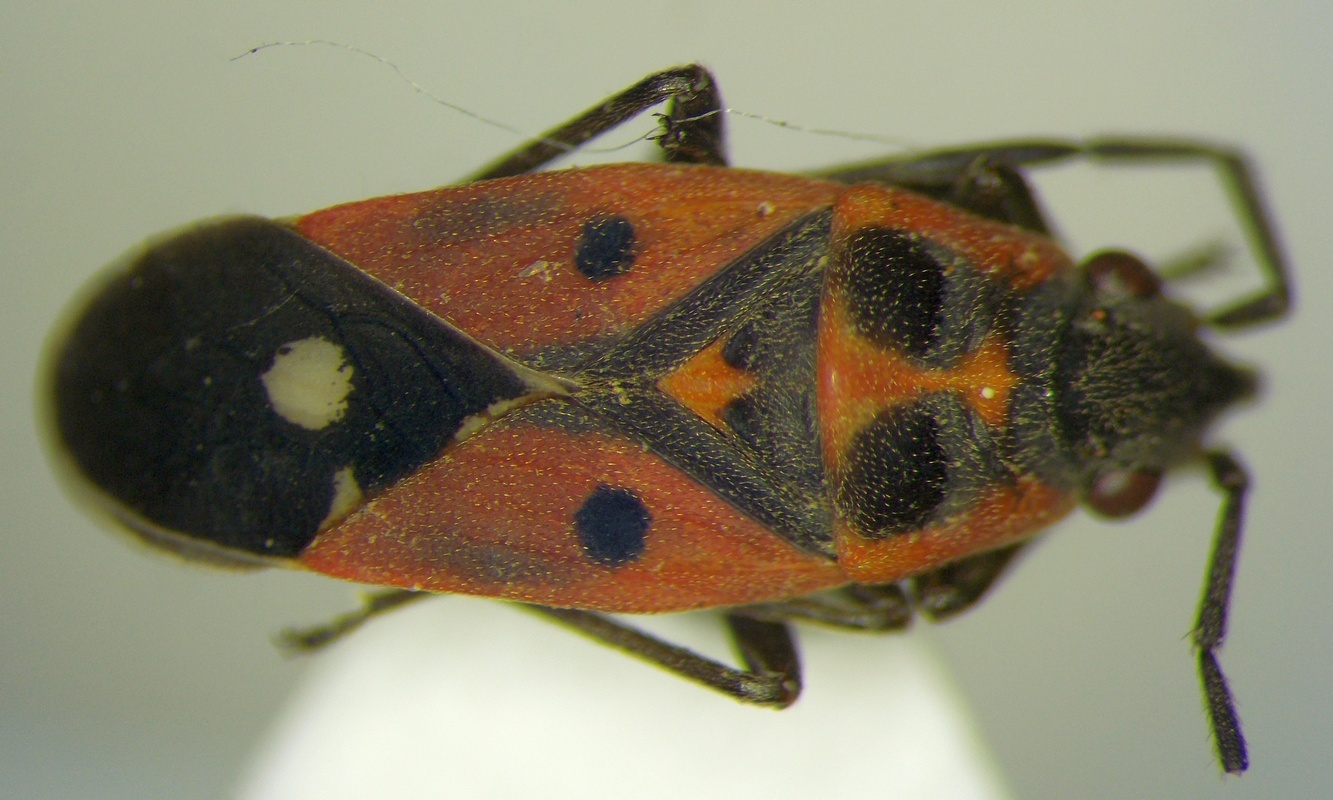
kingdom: Animalia
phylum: Arthropoda
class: Insecta
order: Hemiptera
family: Lygaeidae
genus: Melanocoryphus
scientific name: Melanocoryphus tristrami
